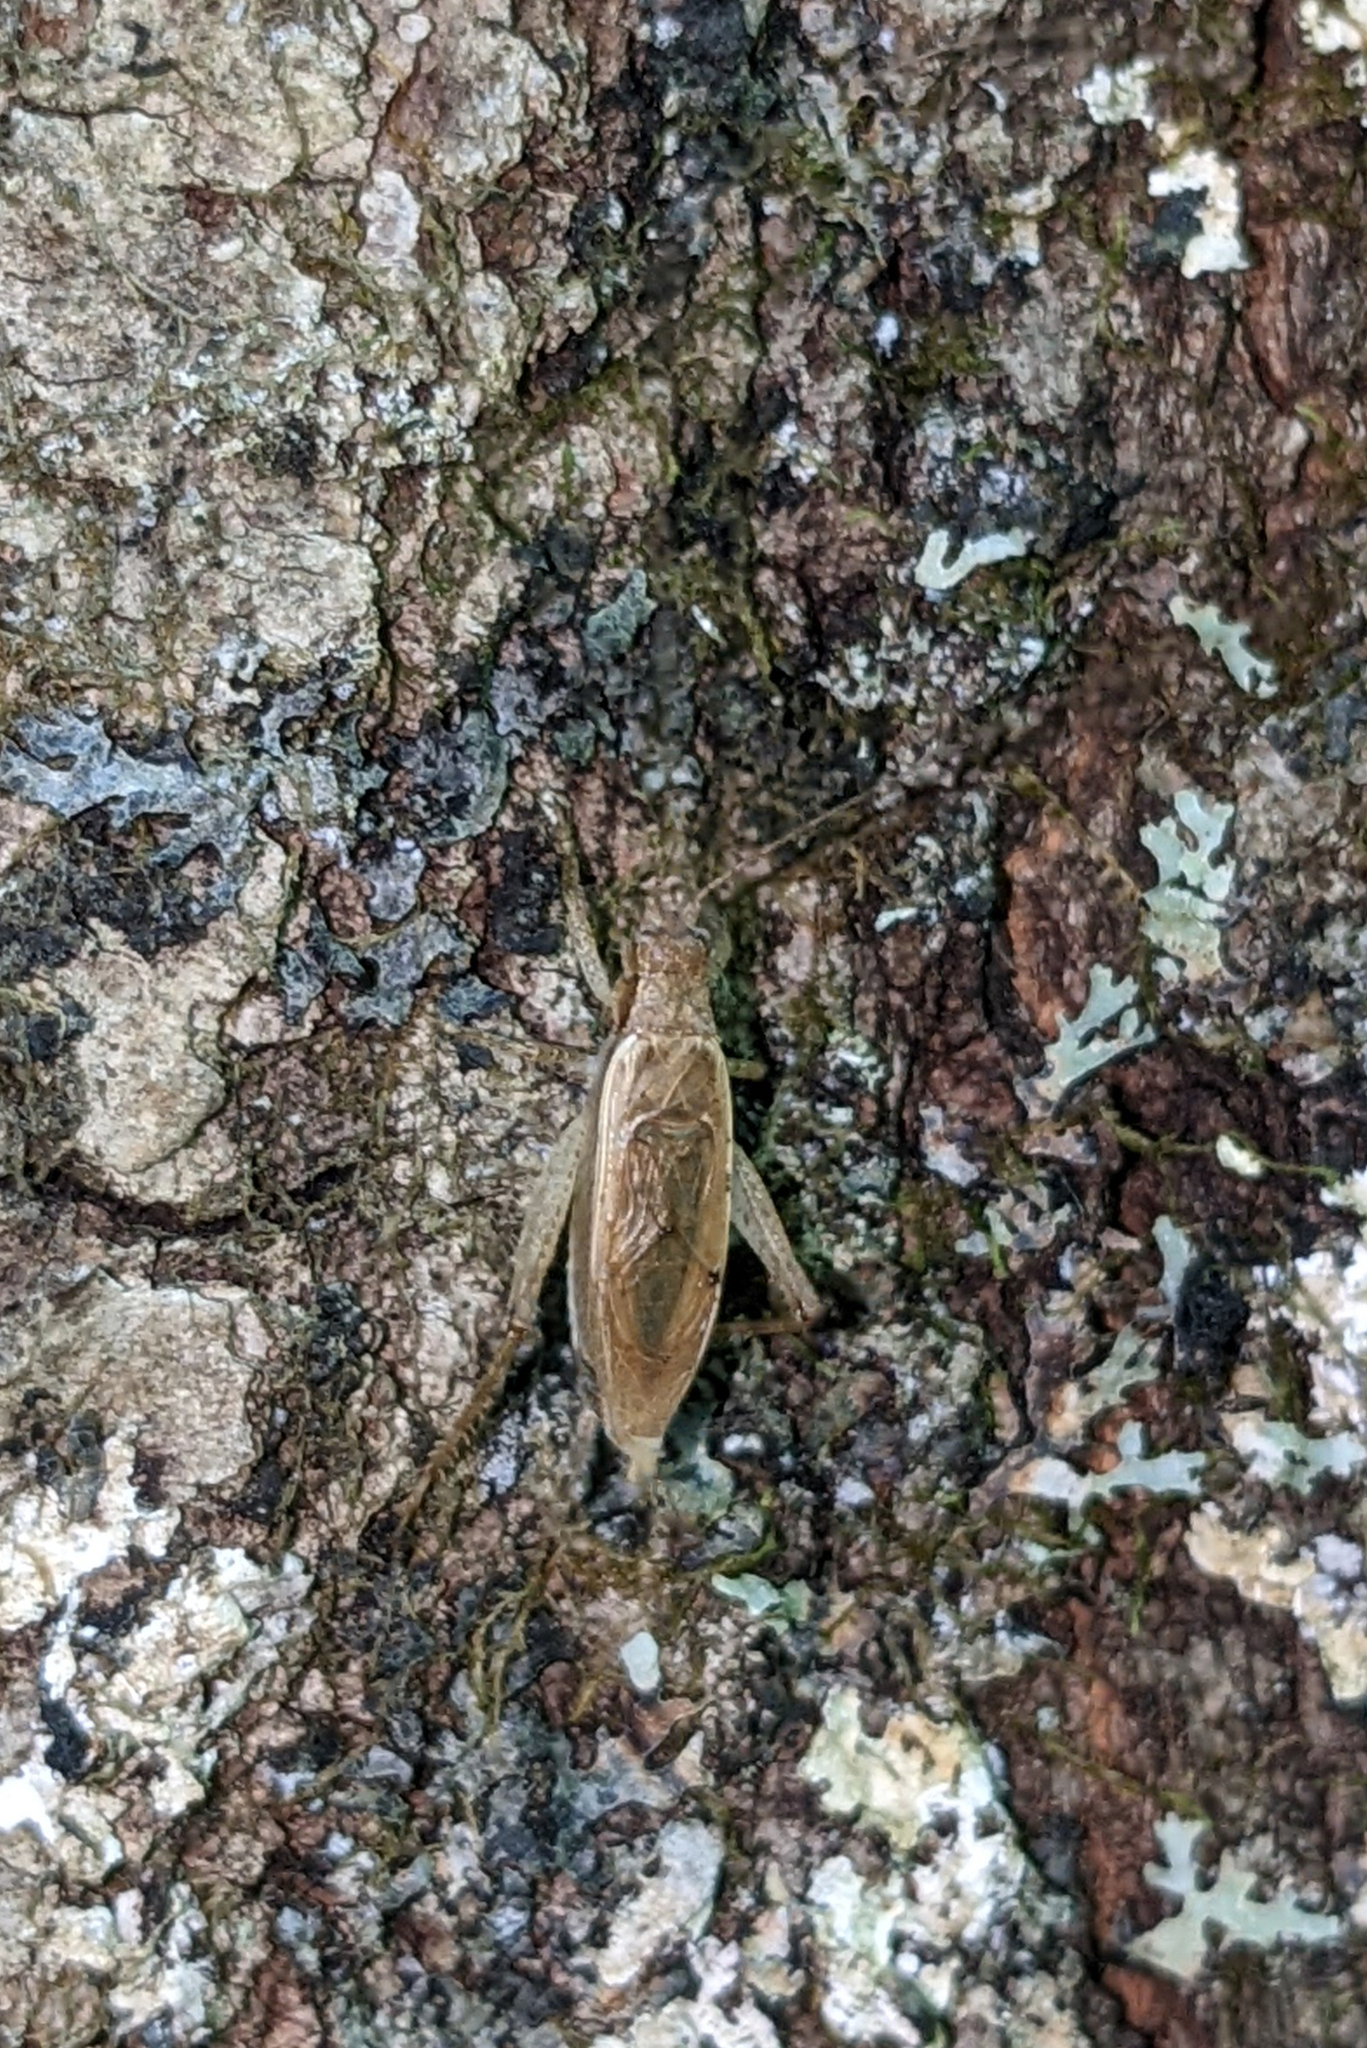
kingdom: Animalia
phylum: Arthropoda
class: Insecta
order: Orthoptera
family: Gryllidae
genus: Hapithus
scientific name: Hapithus saltator
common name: Jumping bush cricket
